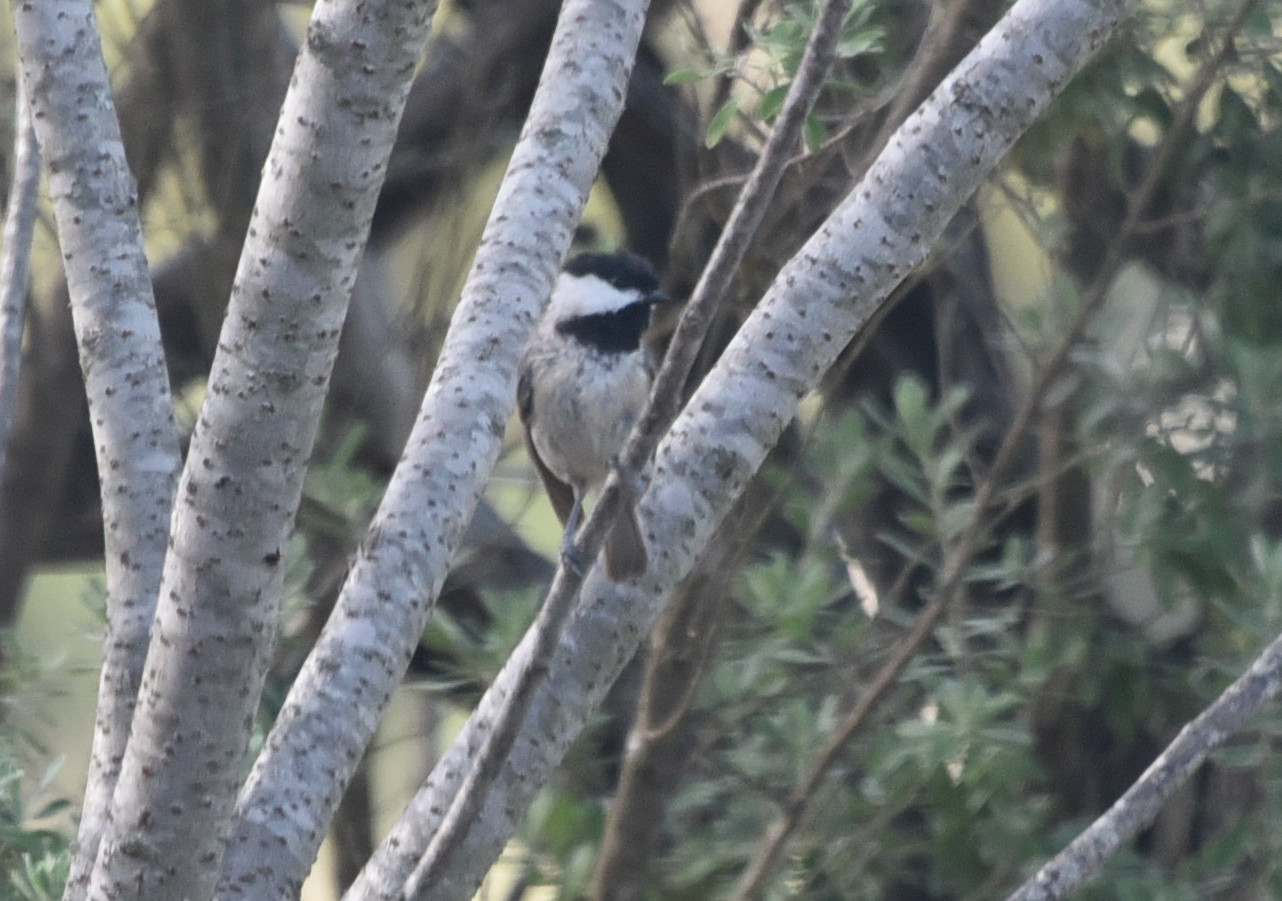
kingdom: Animalia
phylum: Chordata
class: Aves
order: Passeriformes
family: Paridae
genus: Poecile
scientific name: Poecile carolinensis
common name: Carolina chickadee
